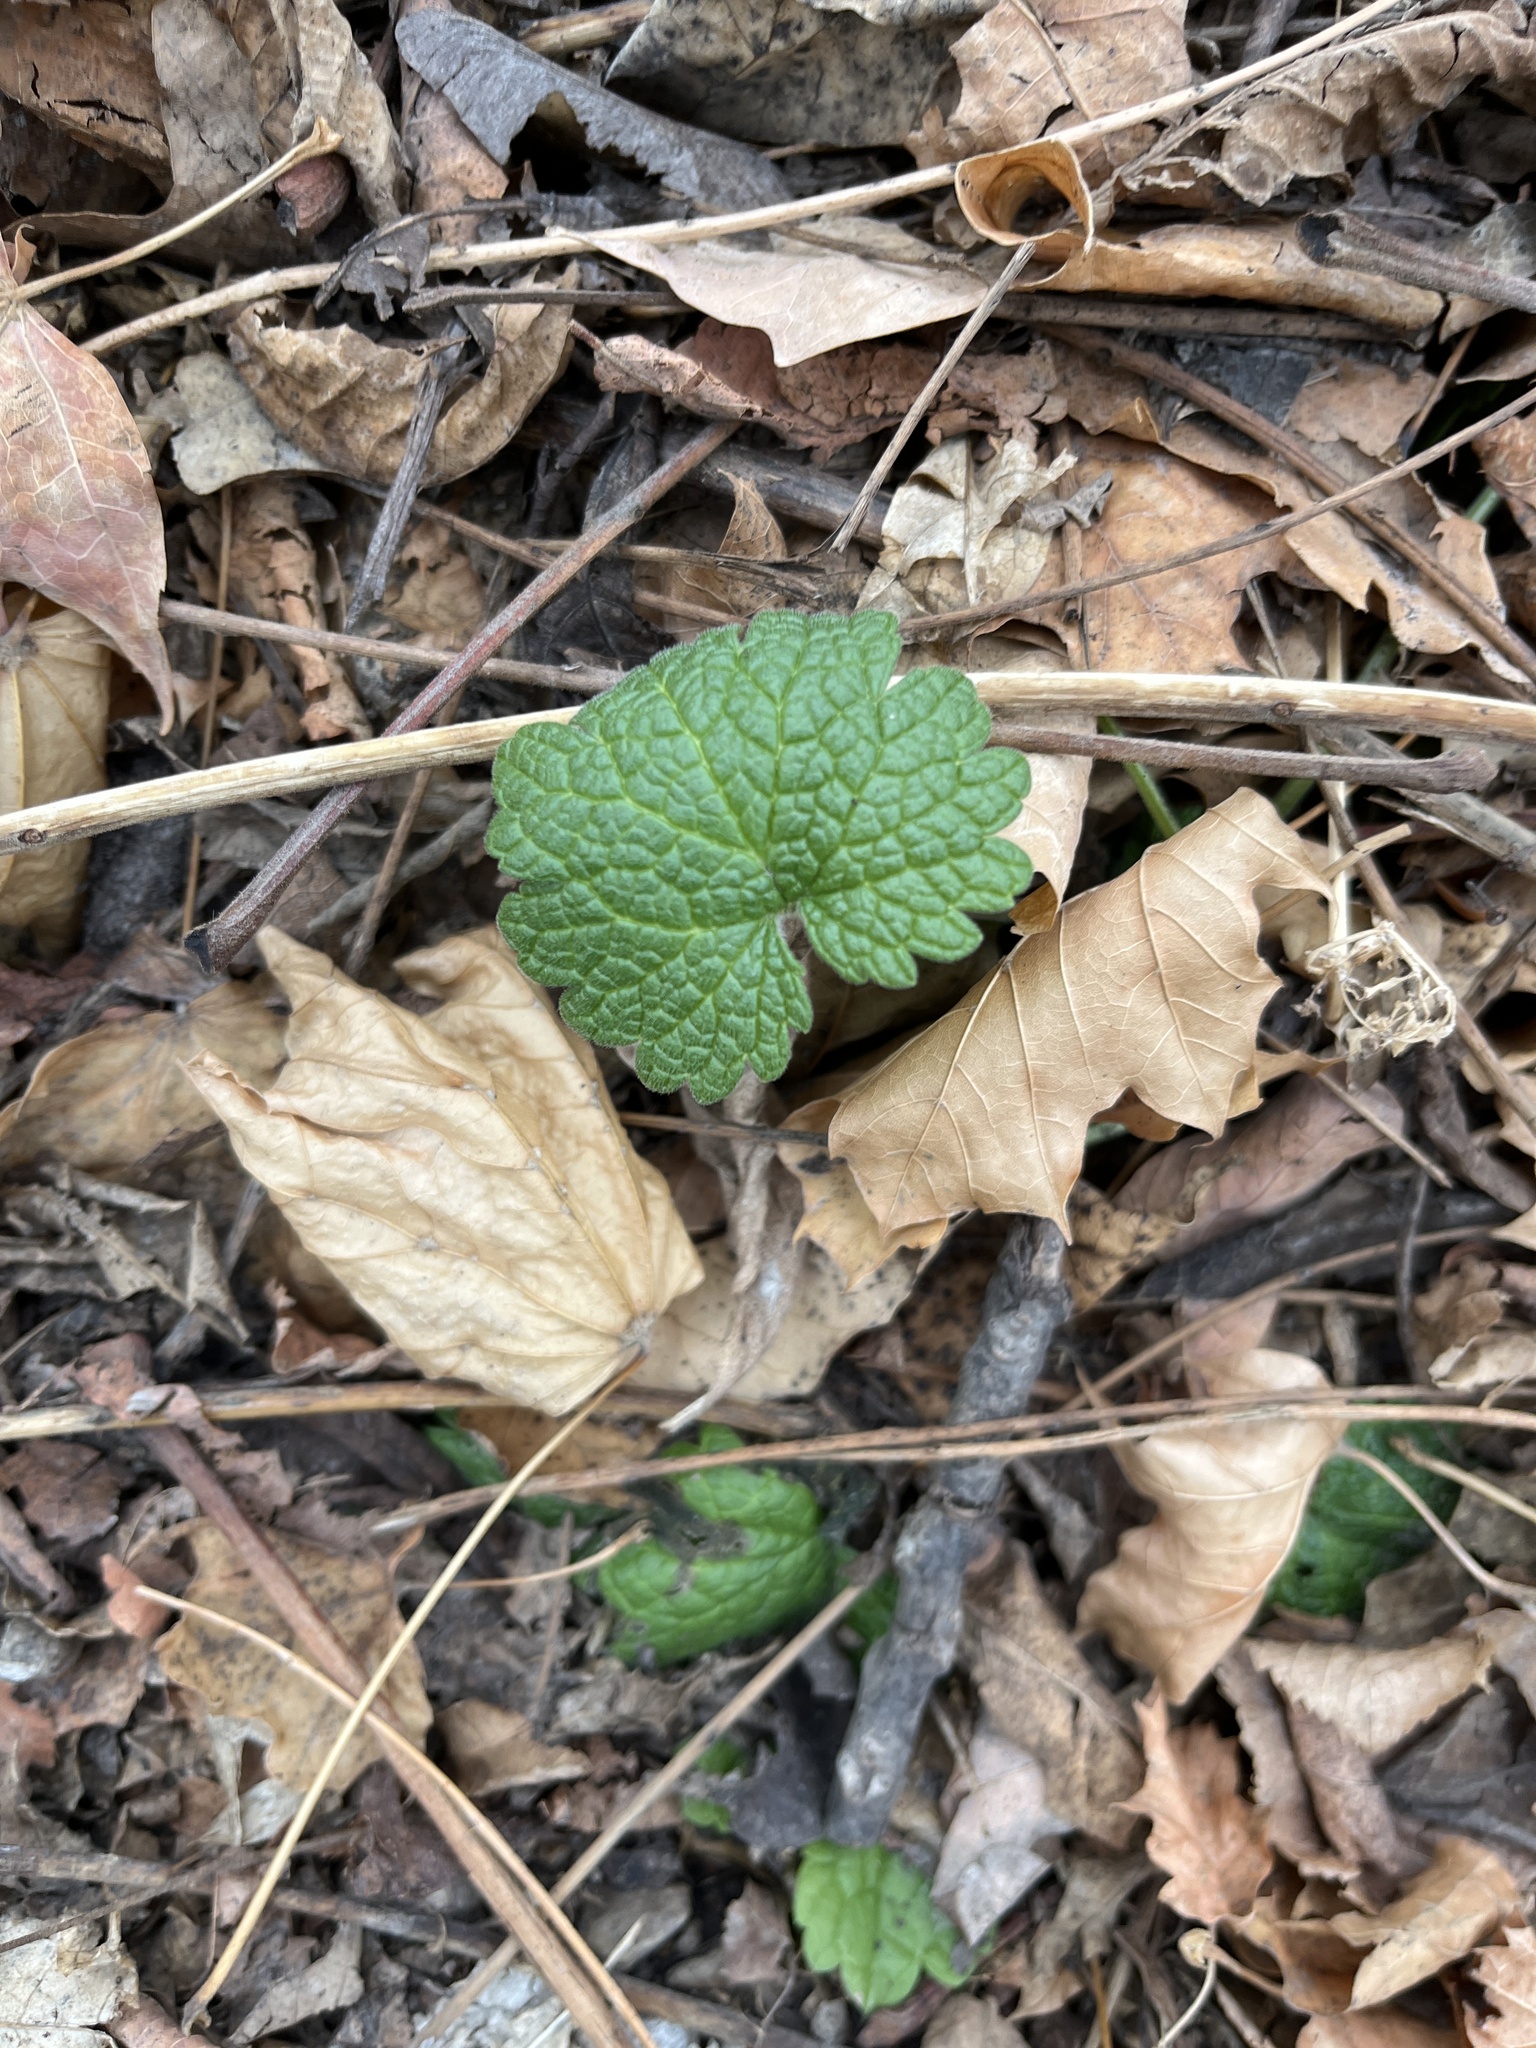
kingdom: Plantae
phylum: Tracheophyta
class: Magnoliopsida
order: Lamiales
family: Lamiaceae
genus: Leonurus
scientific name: Leonurus cardiaca
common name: Motherwort
